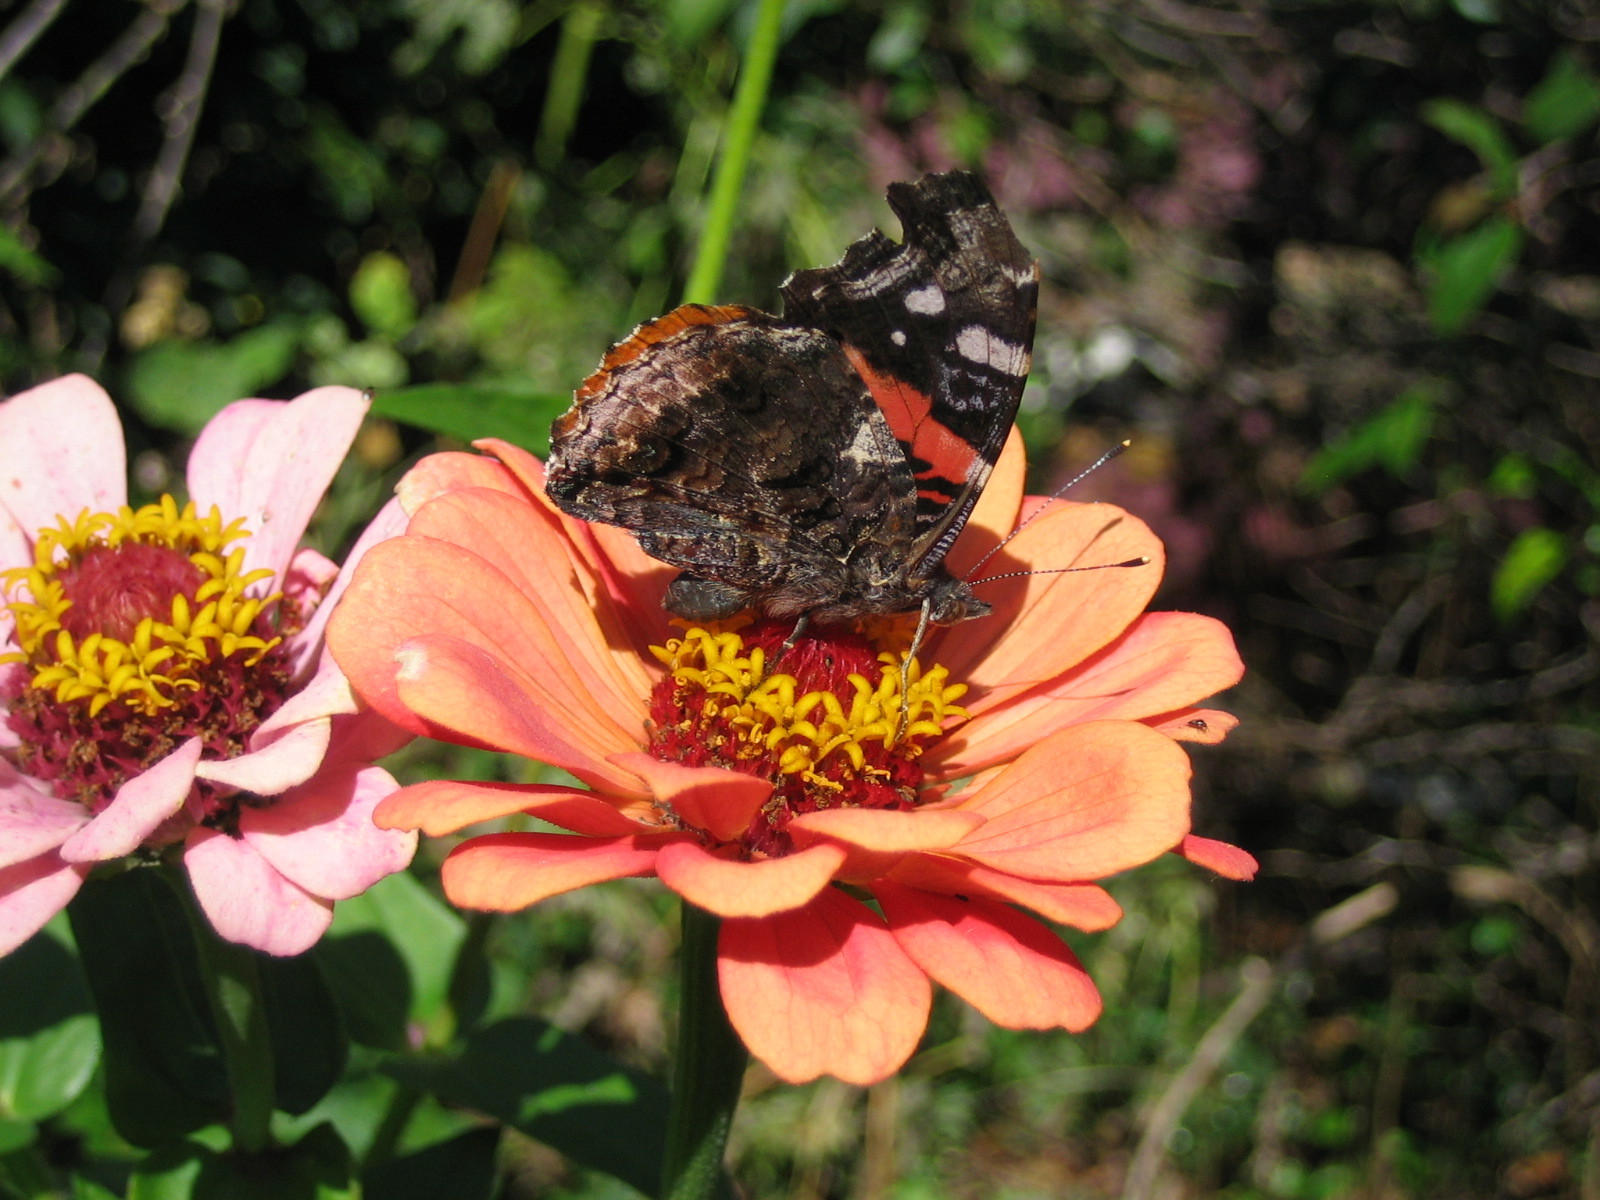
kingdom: Animalia
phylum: Arthropoda
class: Insecta
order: Lepidoptera
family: Nymphalidae
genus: Vanessa
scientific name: Vanessa atalanta
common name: Red admiral
